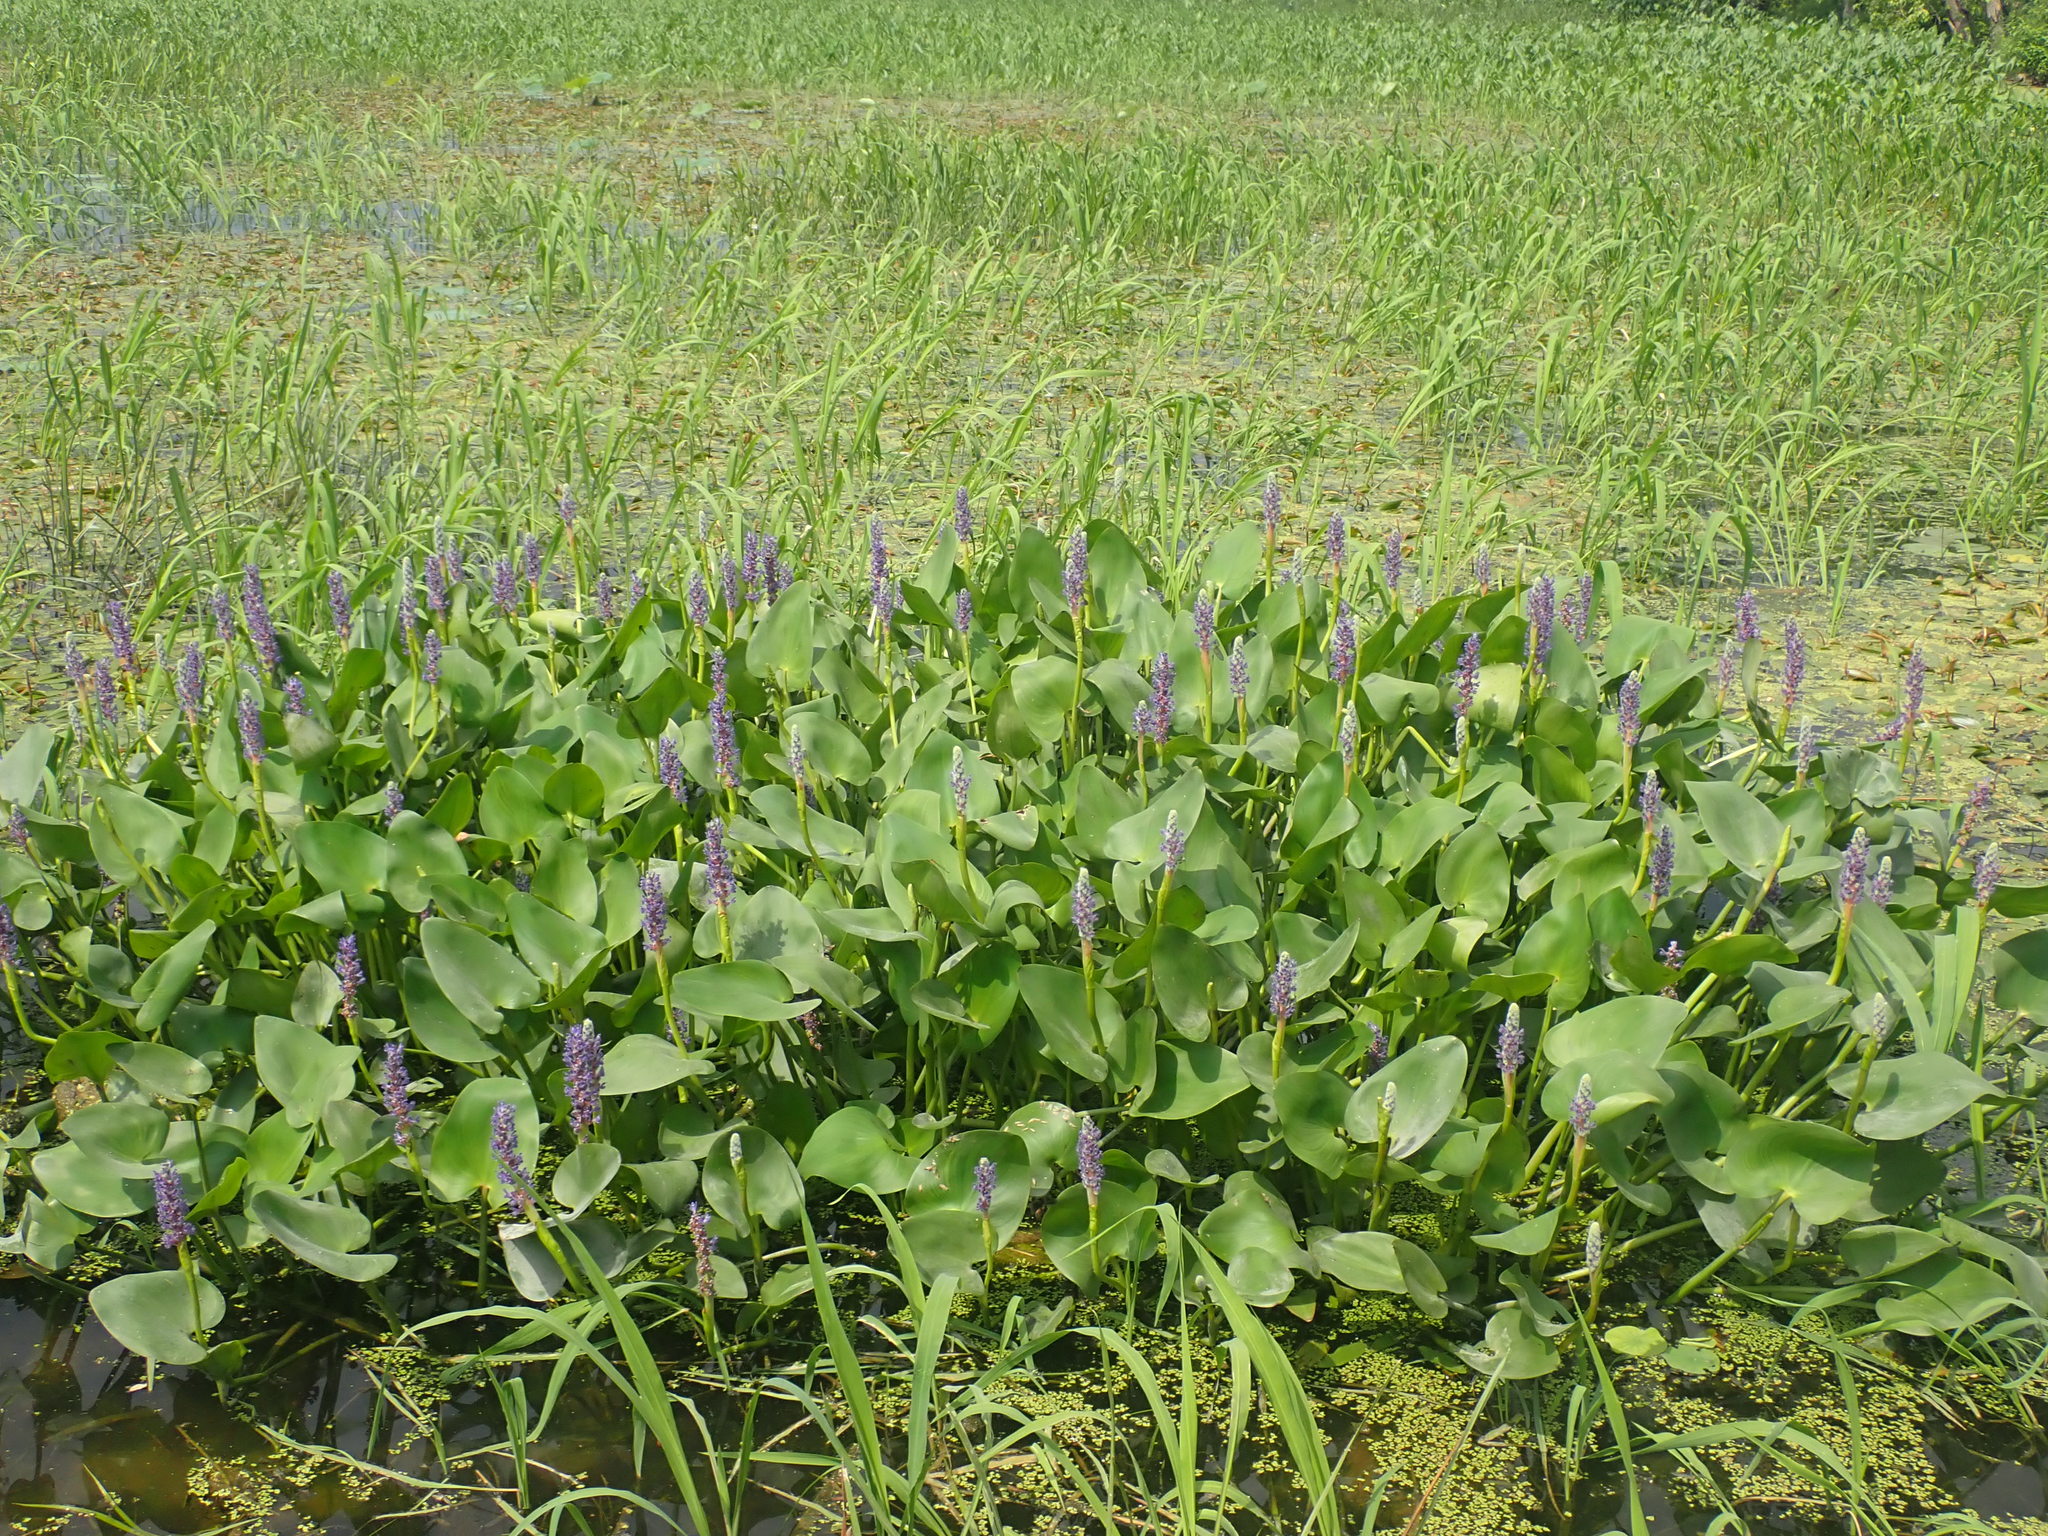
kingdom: Plantae
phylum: Tracheophyta
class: Liliopsida
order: Commelinales
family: Pontederiaceae
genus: Pontederia
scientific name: Pontederia cordata
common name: Pickerelweed
